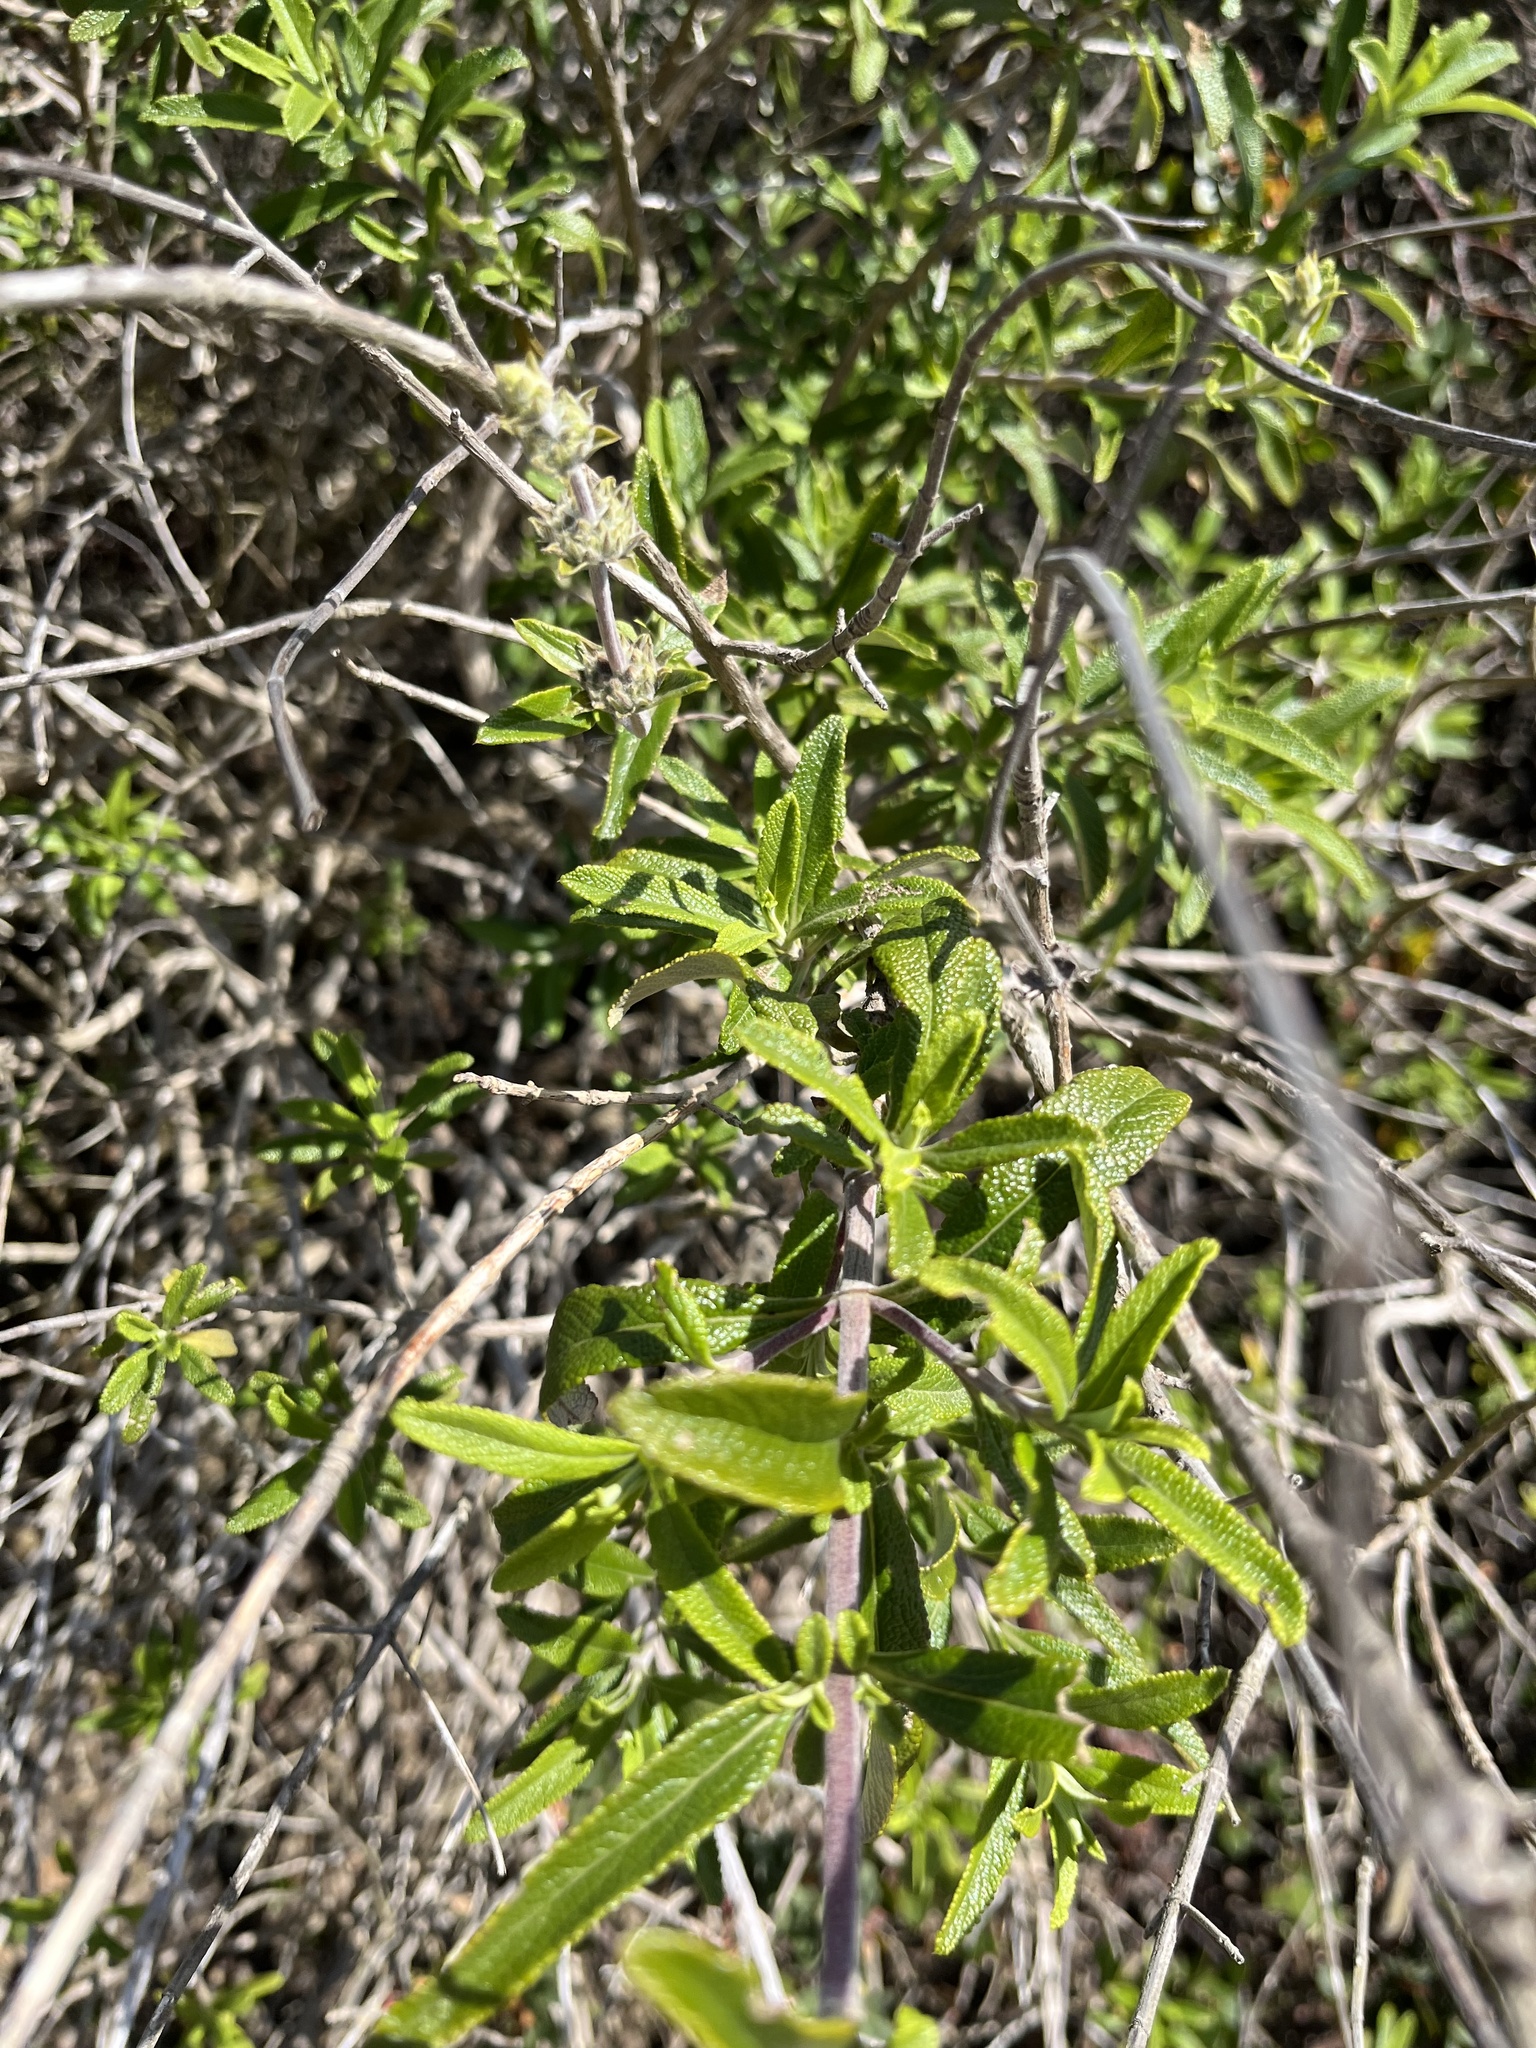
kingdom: Plantae
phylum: Tracheophyta
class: Magnoliopsida
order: Lamiales
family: Lamiaceae
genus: Salvia
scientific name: Salvia mellifera
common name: Black sage
